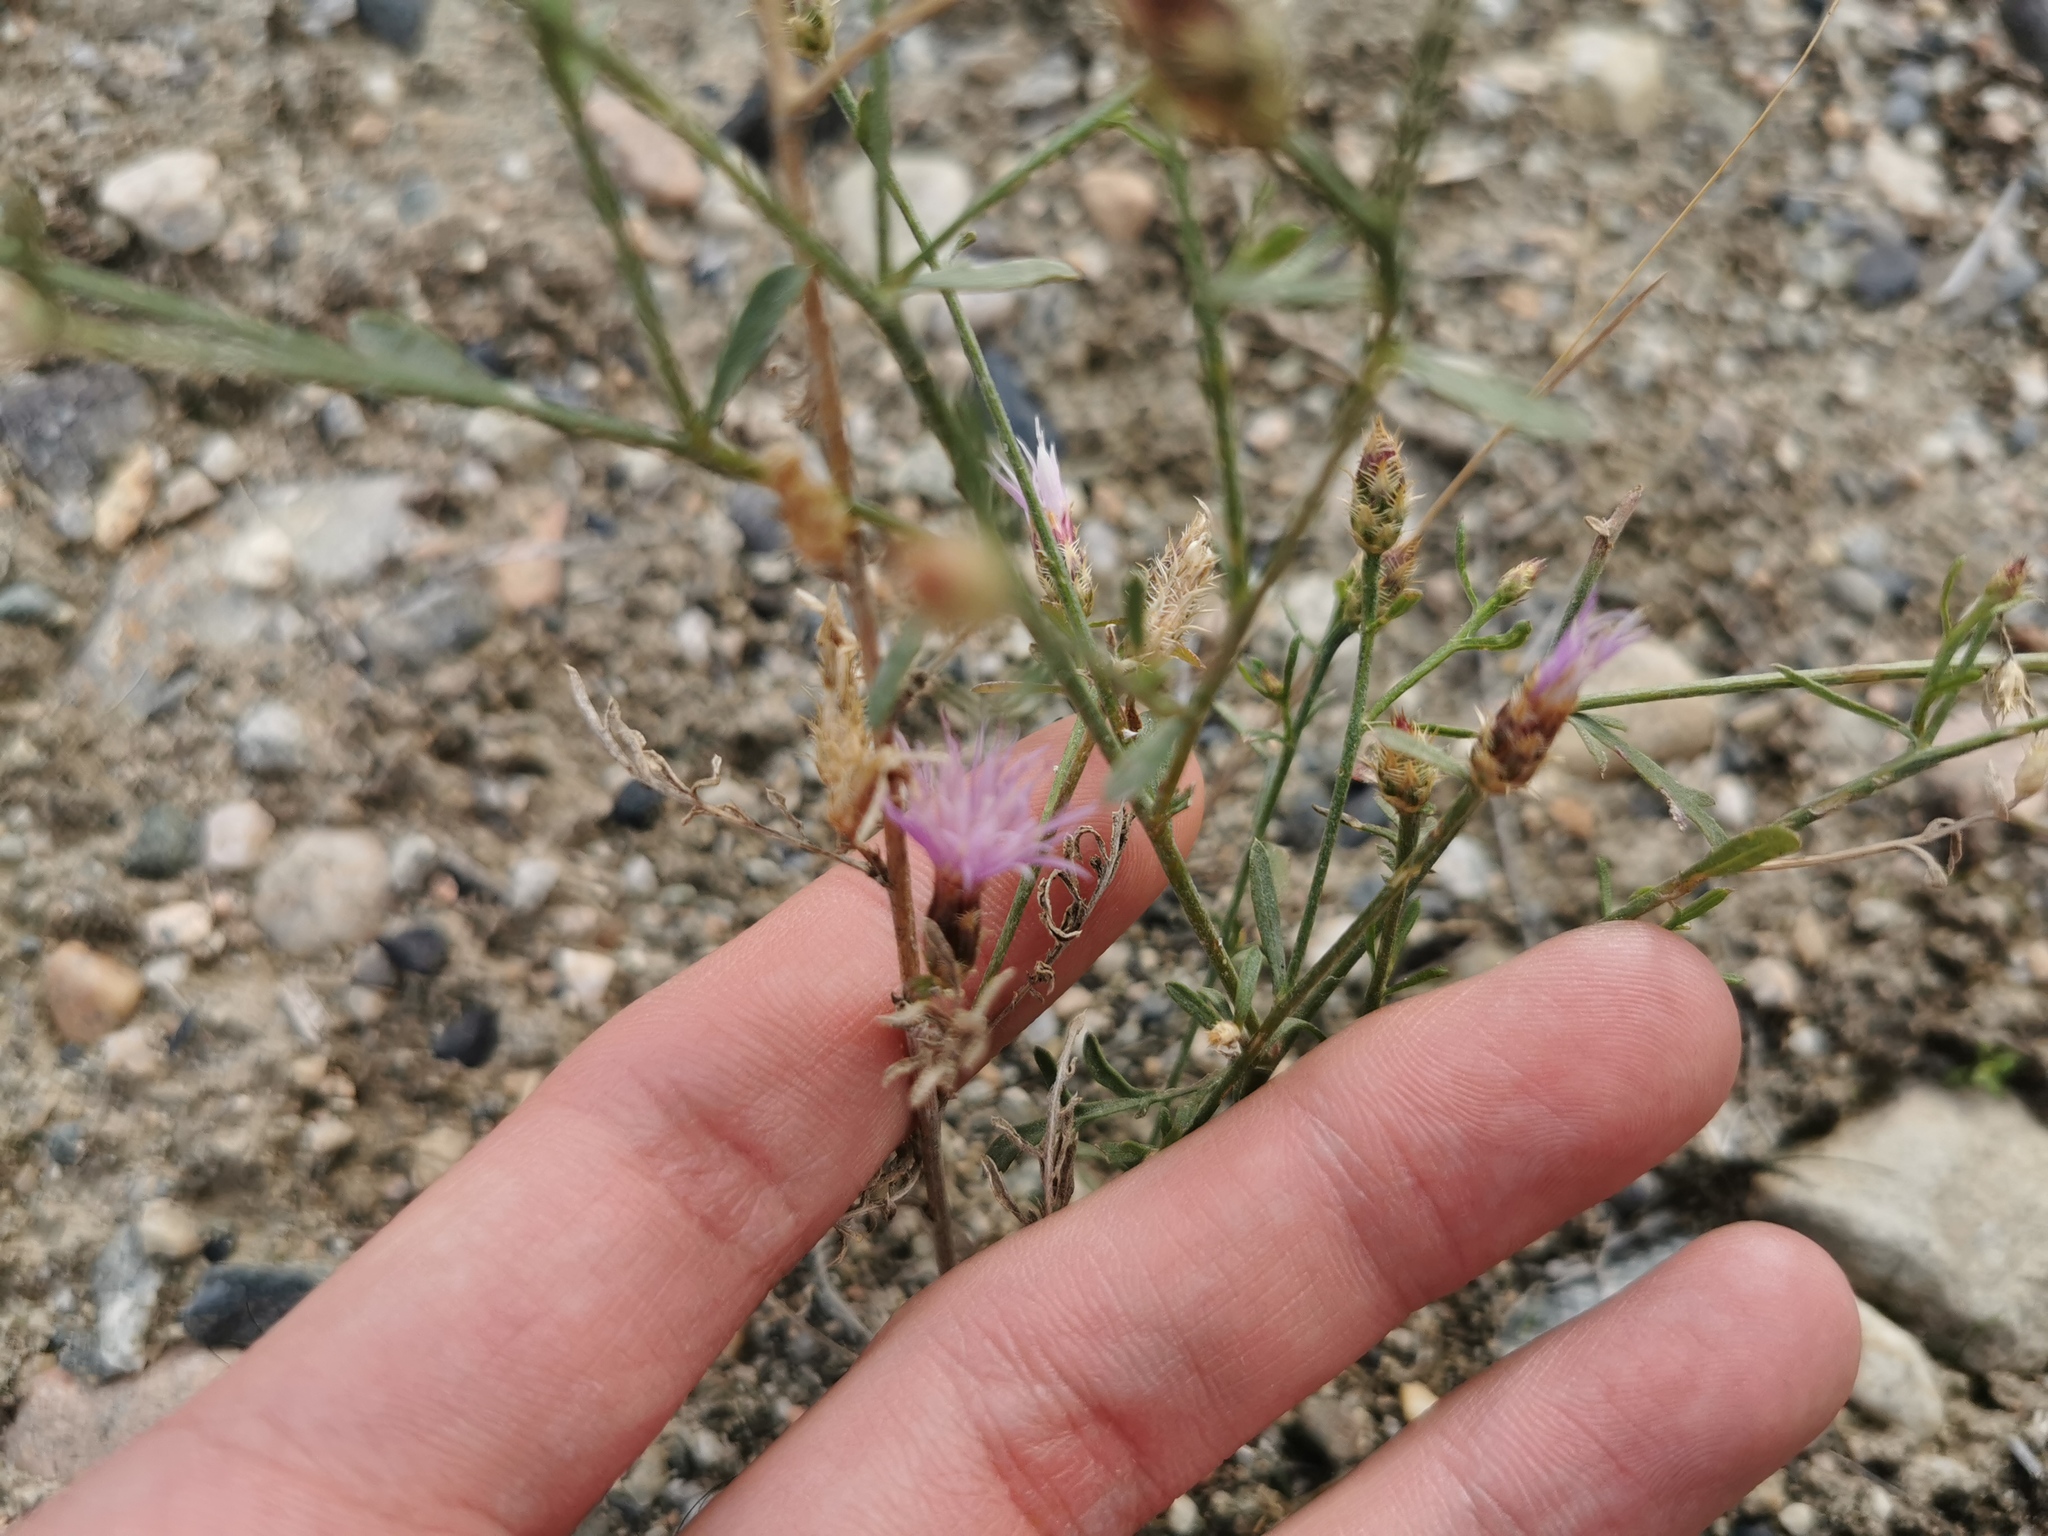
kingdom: Plantae
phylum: Tracheophyta
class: Magnoliopsida
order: Asterales
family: Asteraceae
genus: Centaurea
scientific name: Centaurea diffusa
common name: Diffuse knapweed
